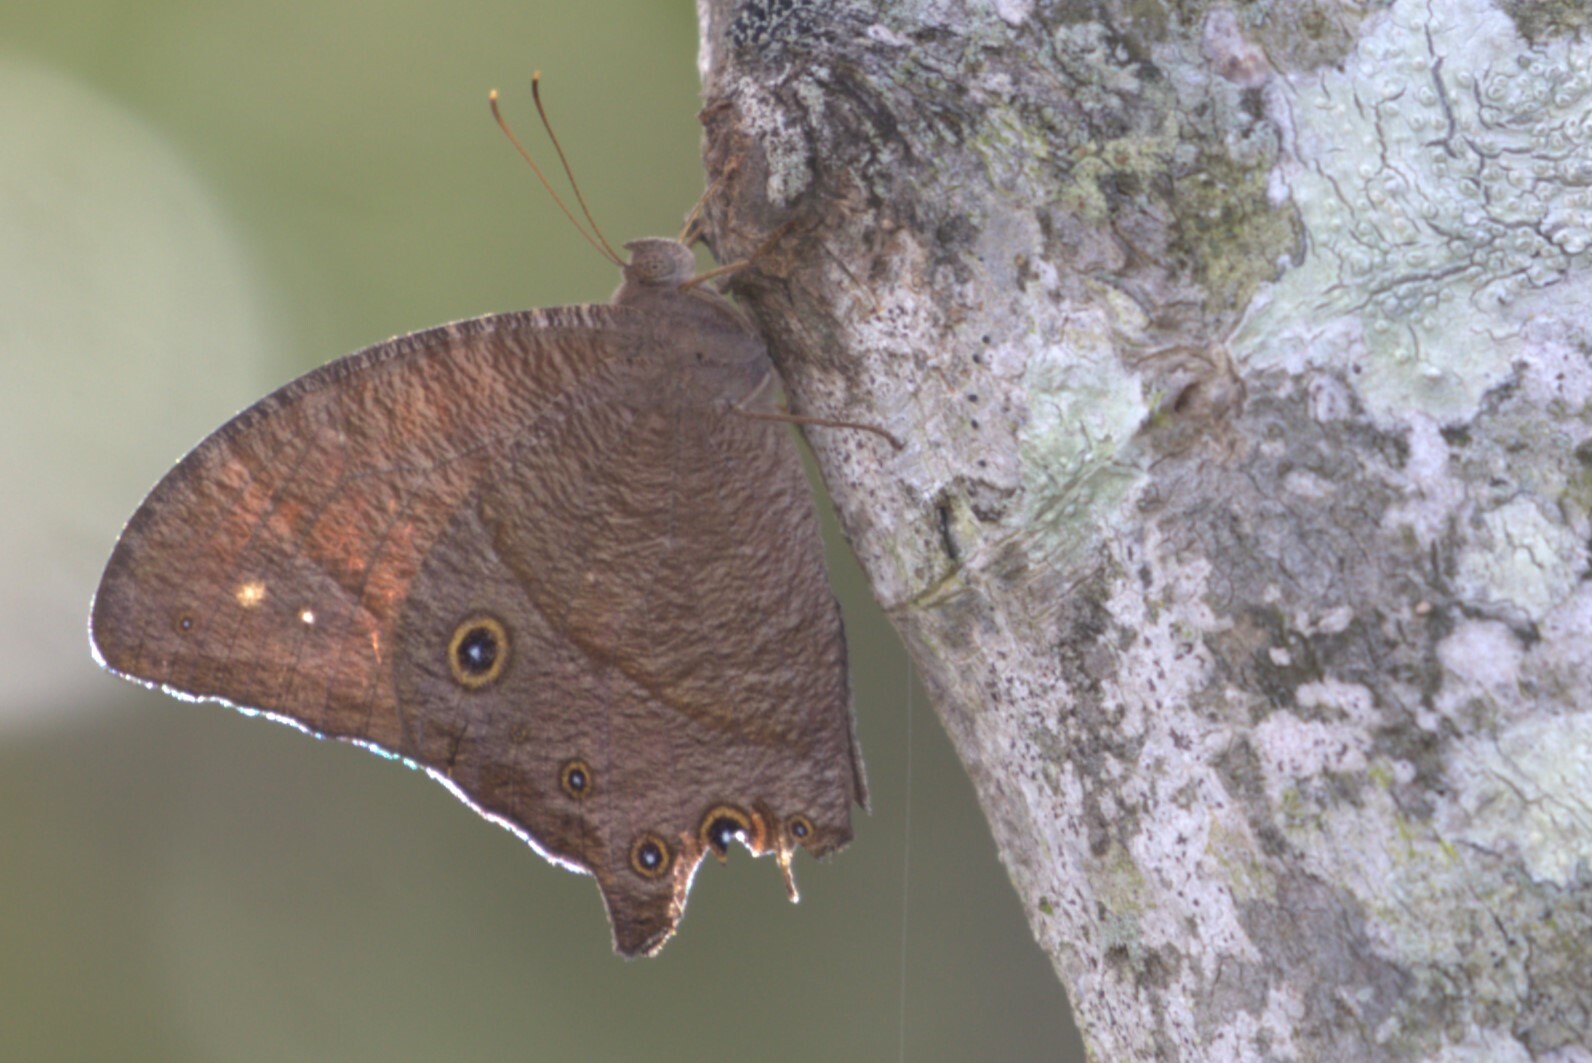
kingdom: Animalia
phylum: Arthropoda
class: Insecta
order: Lepidoptera
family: Nymphalidae
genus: Melanitis
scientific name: Melanitis leda
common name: Twilight brown
